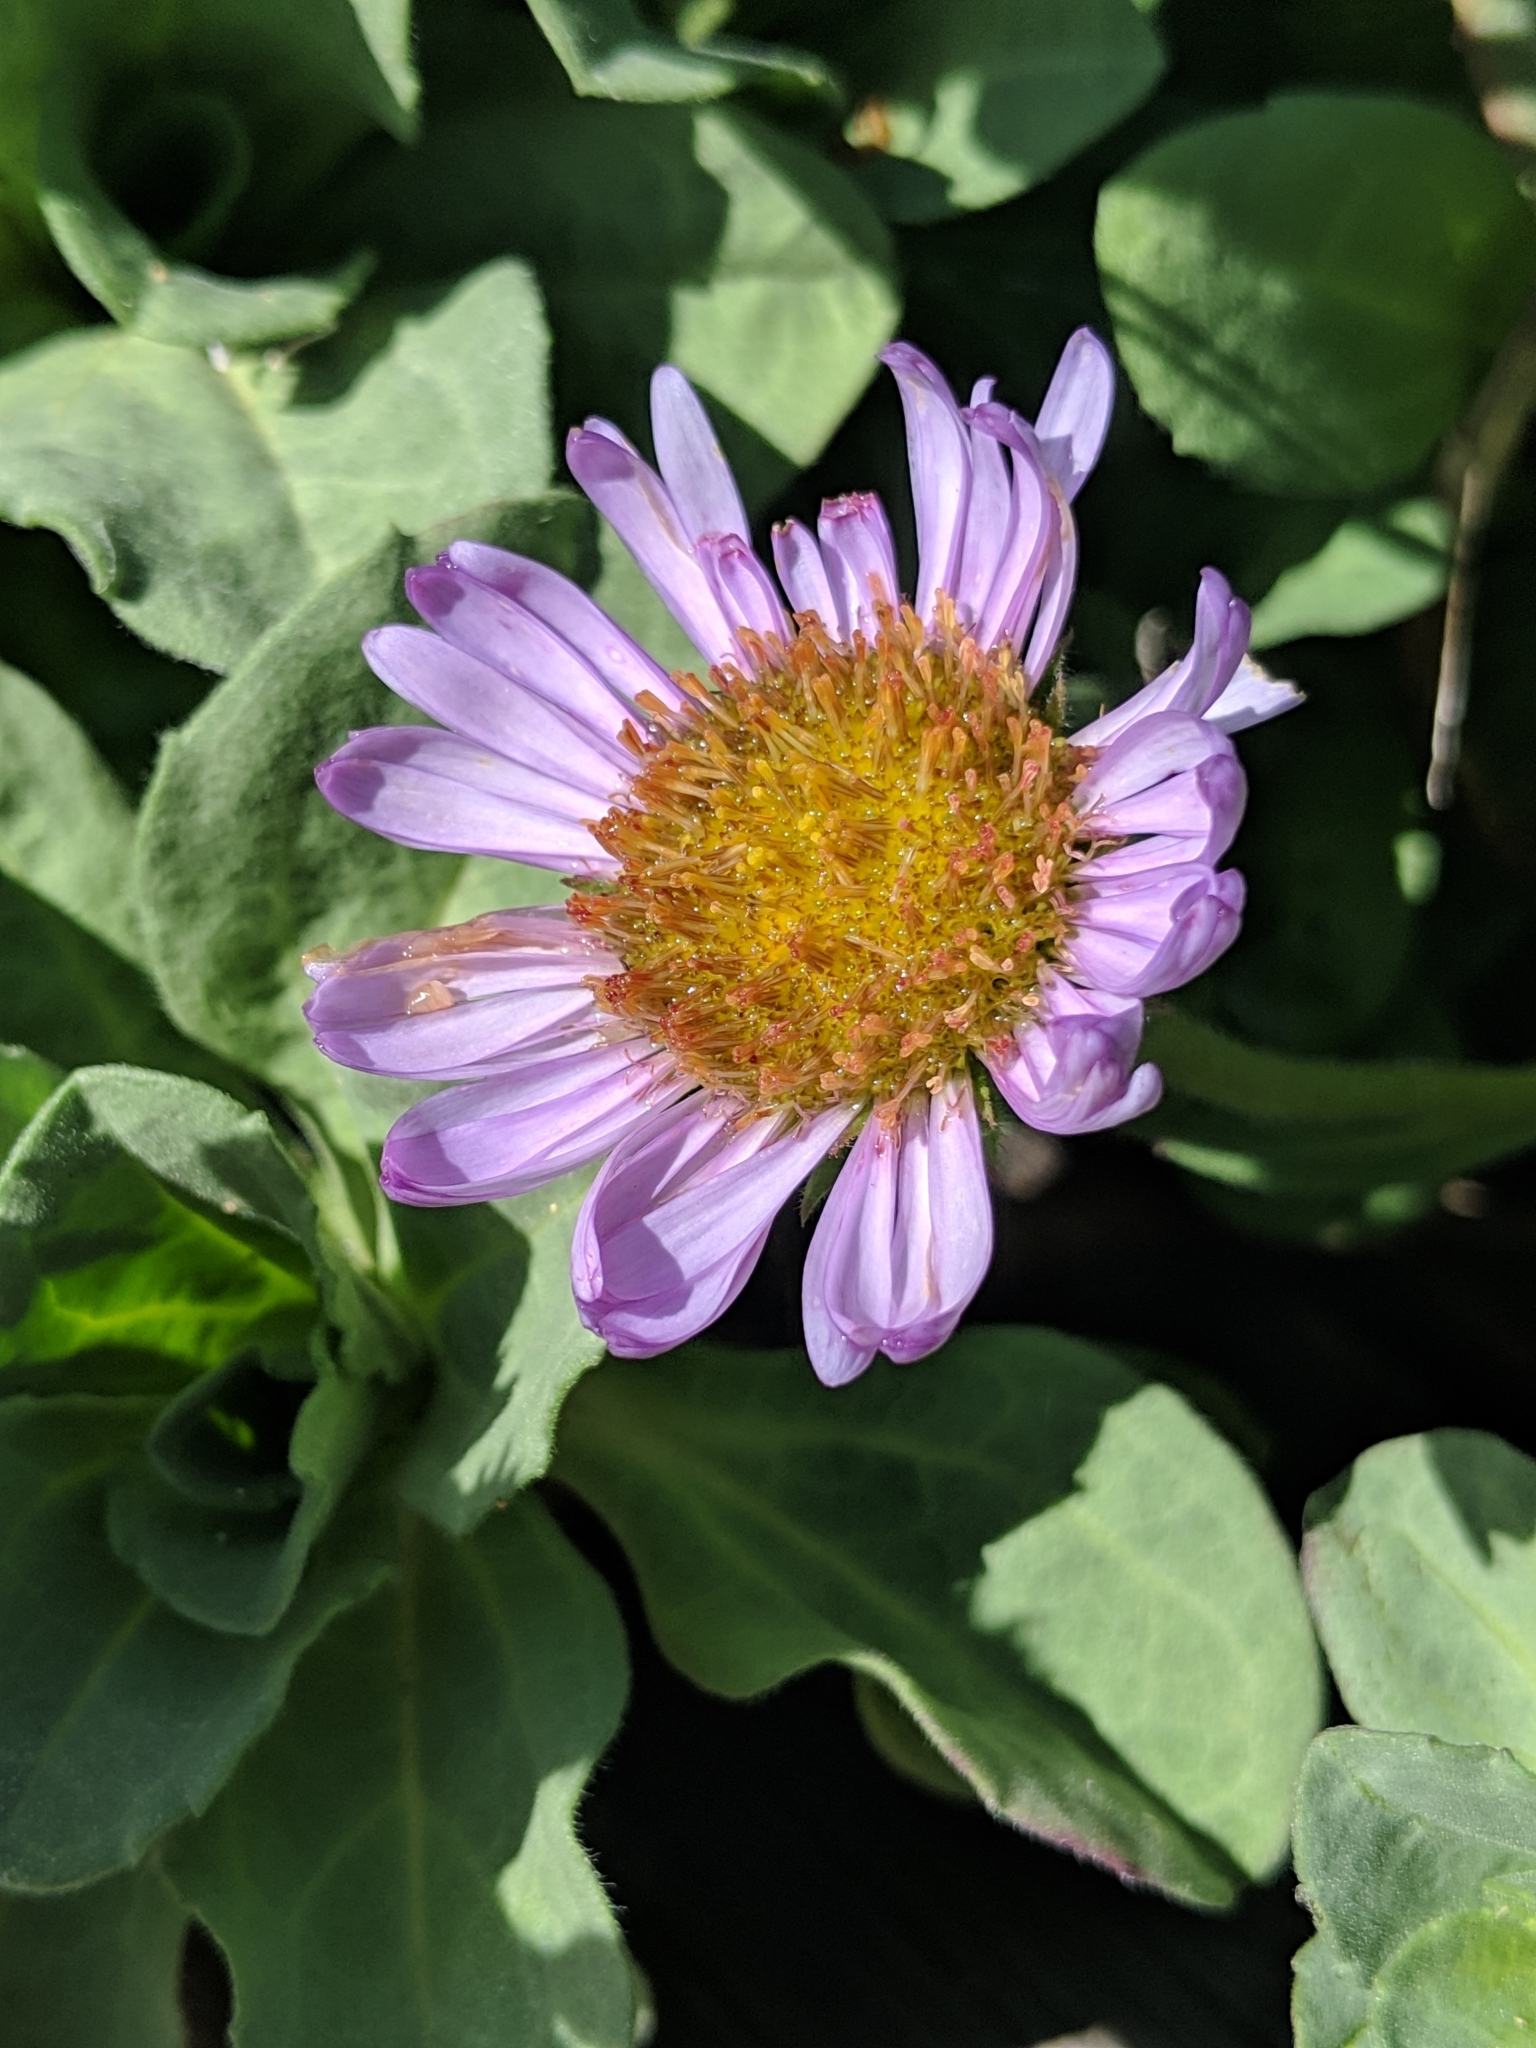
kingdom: Plantae
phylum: Tracheophyta
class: Magnoliopsida
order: Asterales
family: Asteraceae
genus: Erigeron
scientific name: Erigeron glaucus
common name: Seaside daisy
